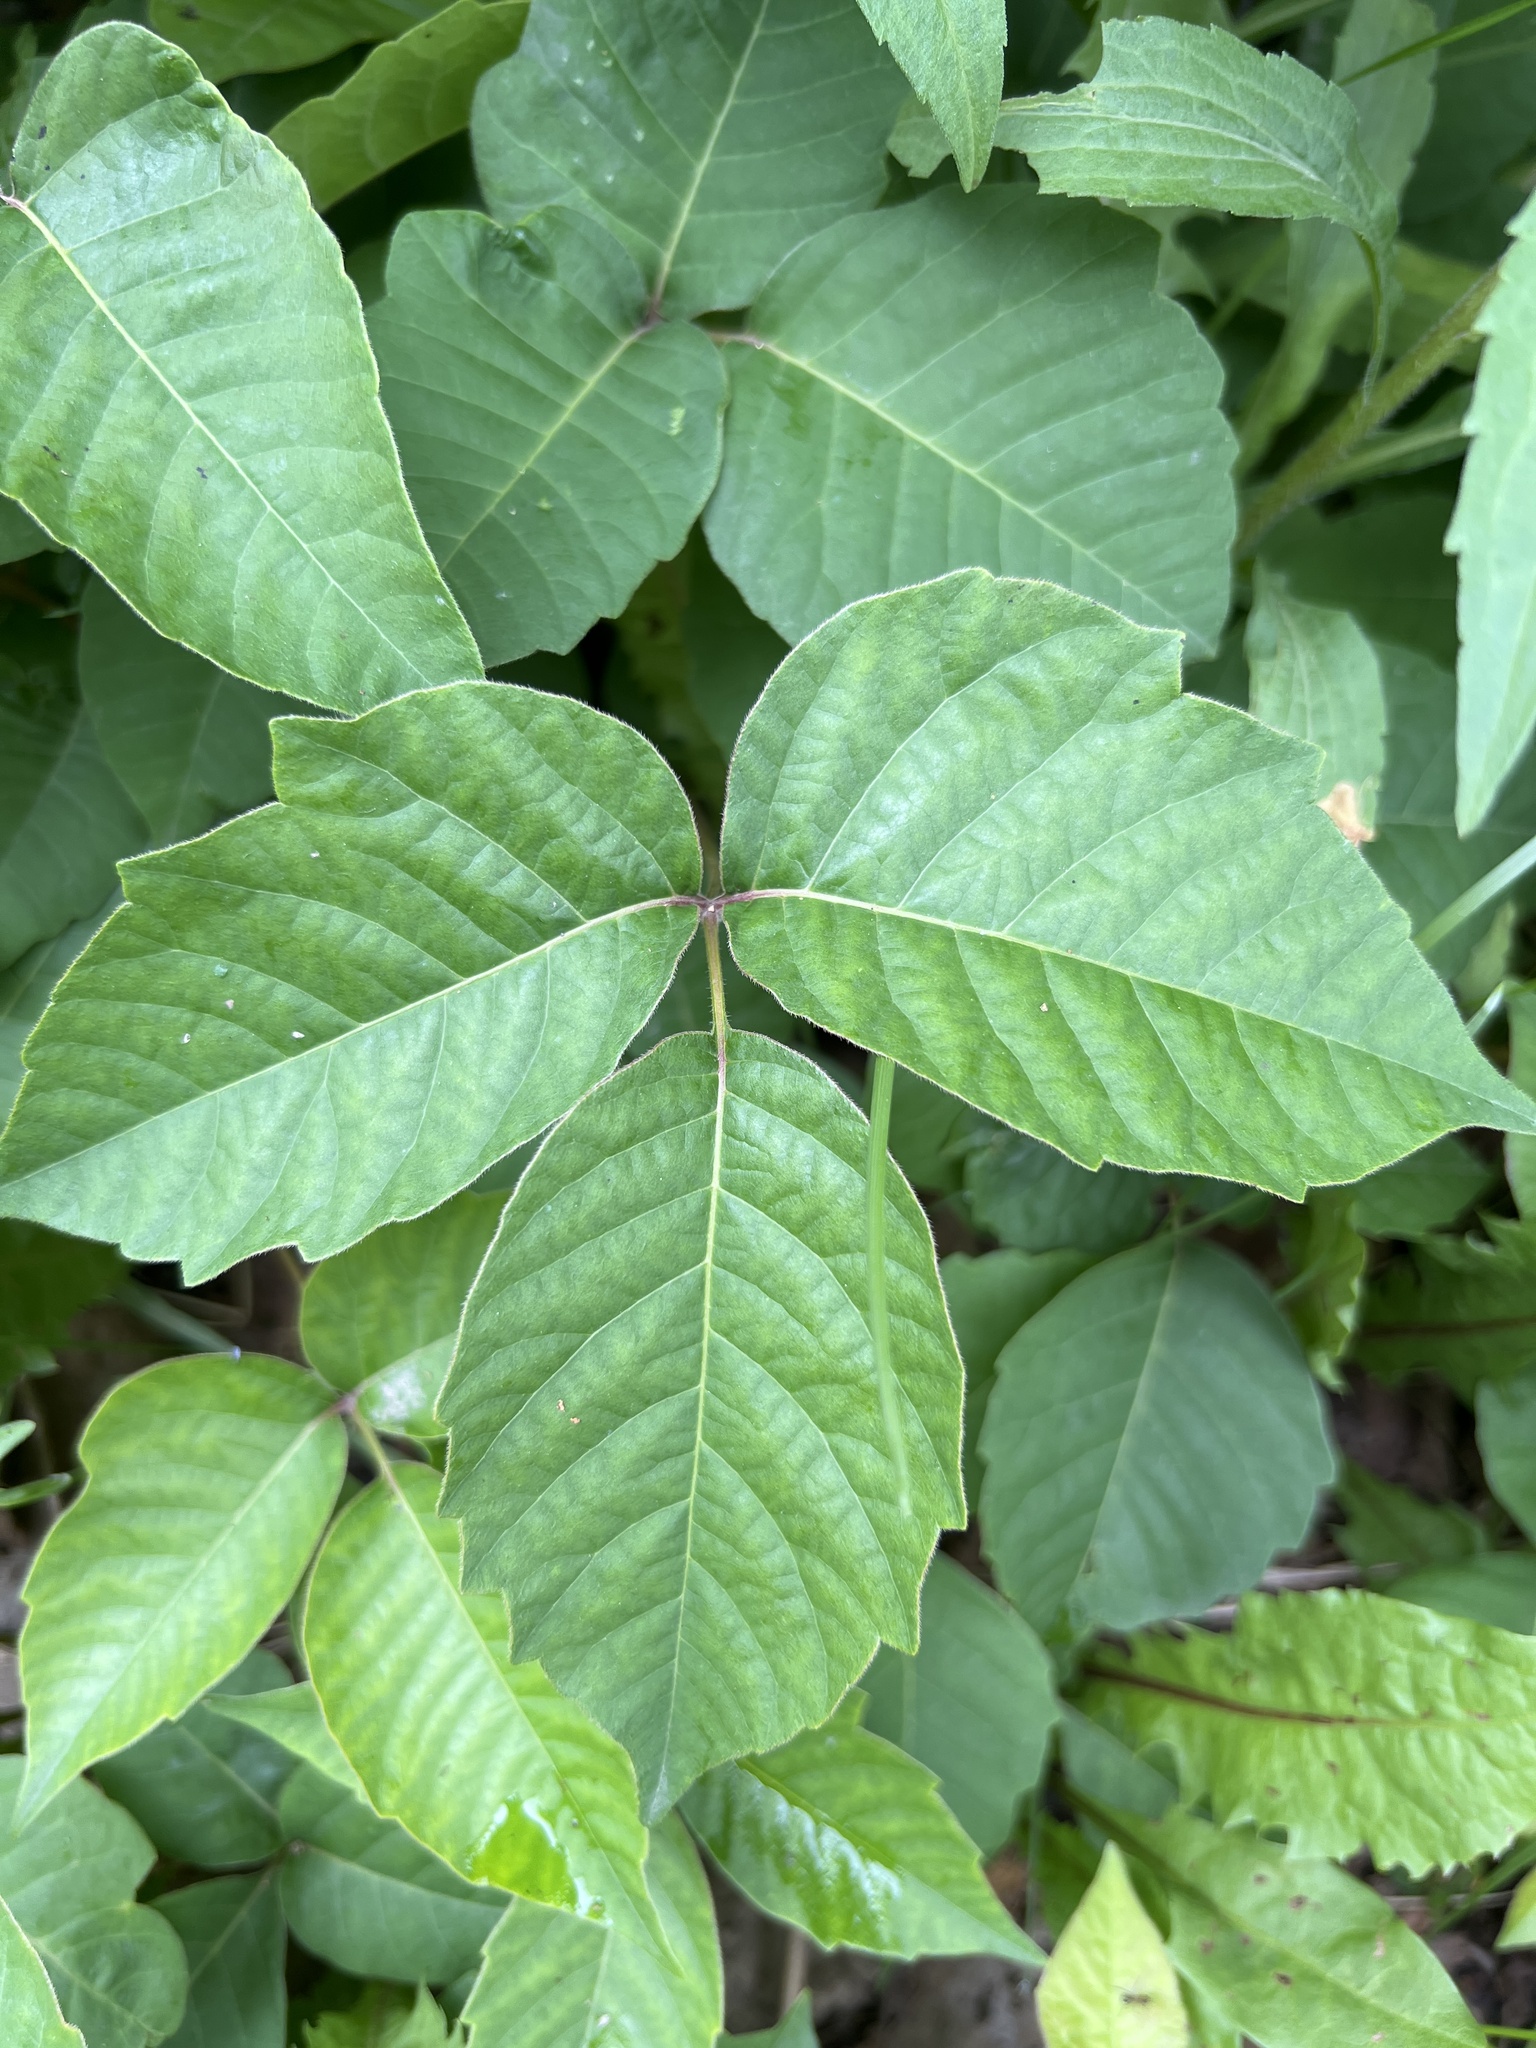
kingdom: Plantae
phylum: Tracheophyta
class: Magnoliopsida
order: Sapindales
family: Anacardiaceae
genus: Toxicodendron
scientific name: Toxicodendron rydbergii
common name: Rydberg's poison-ivy
